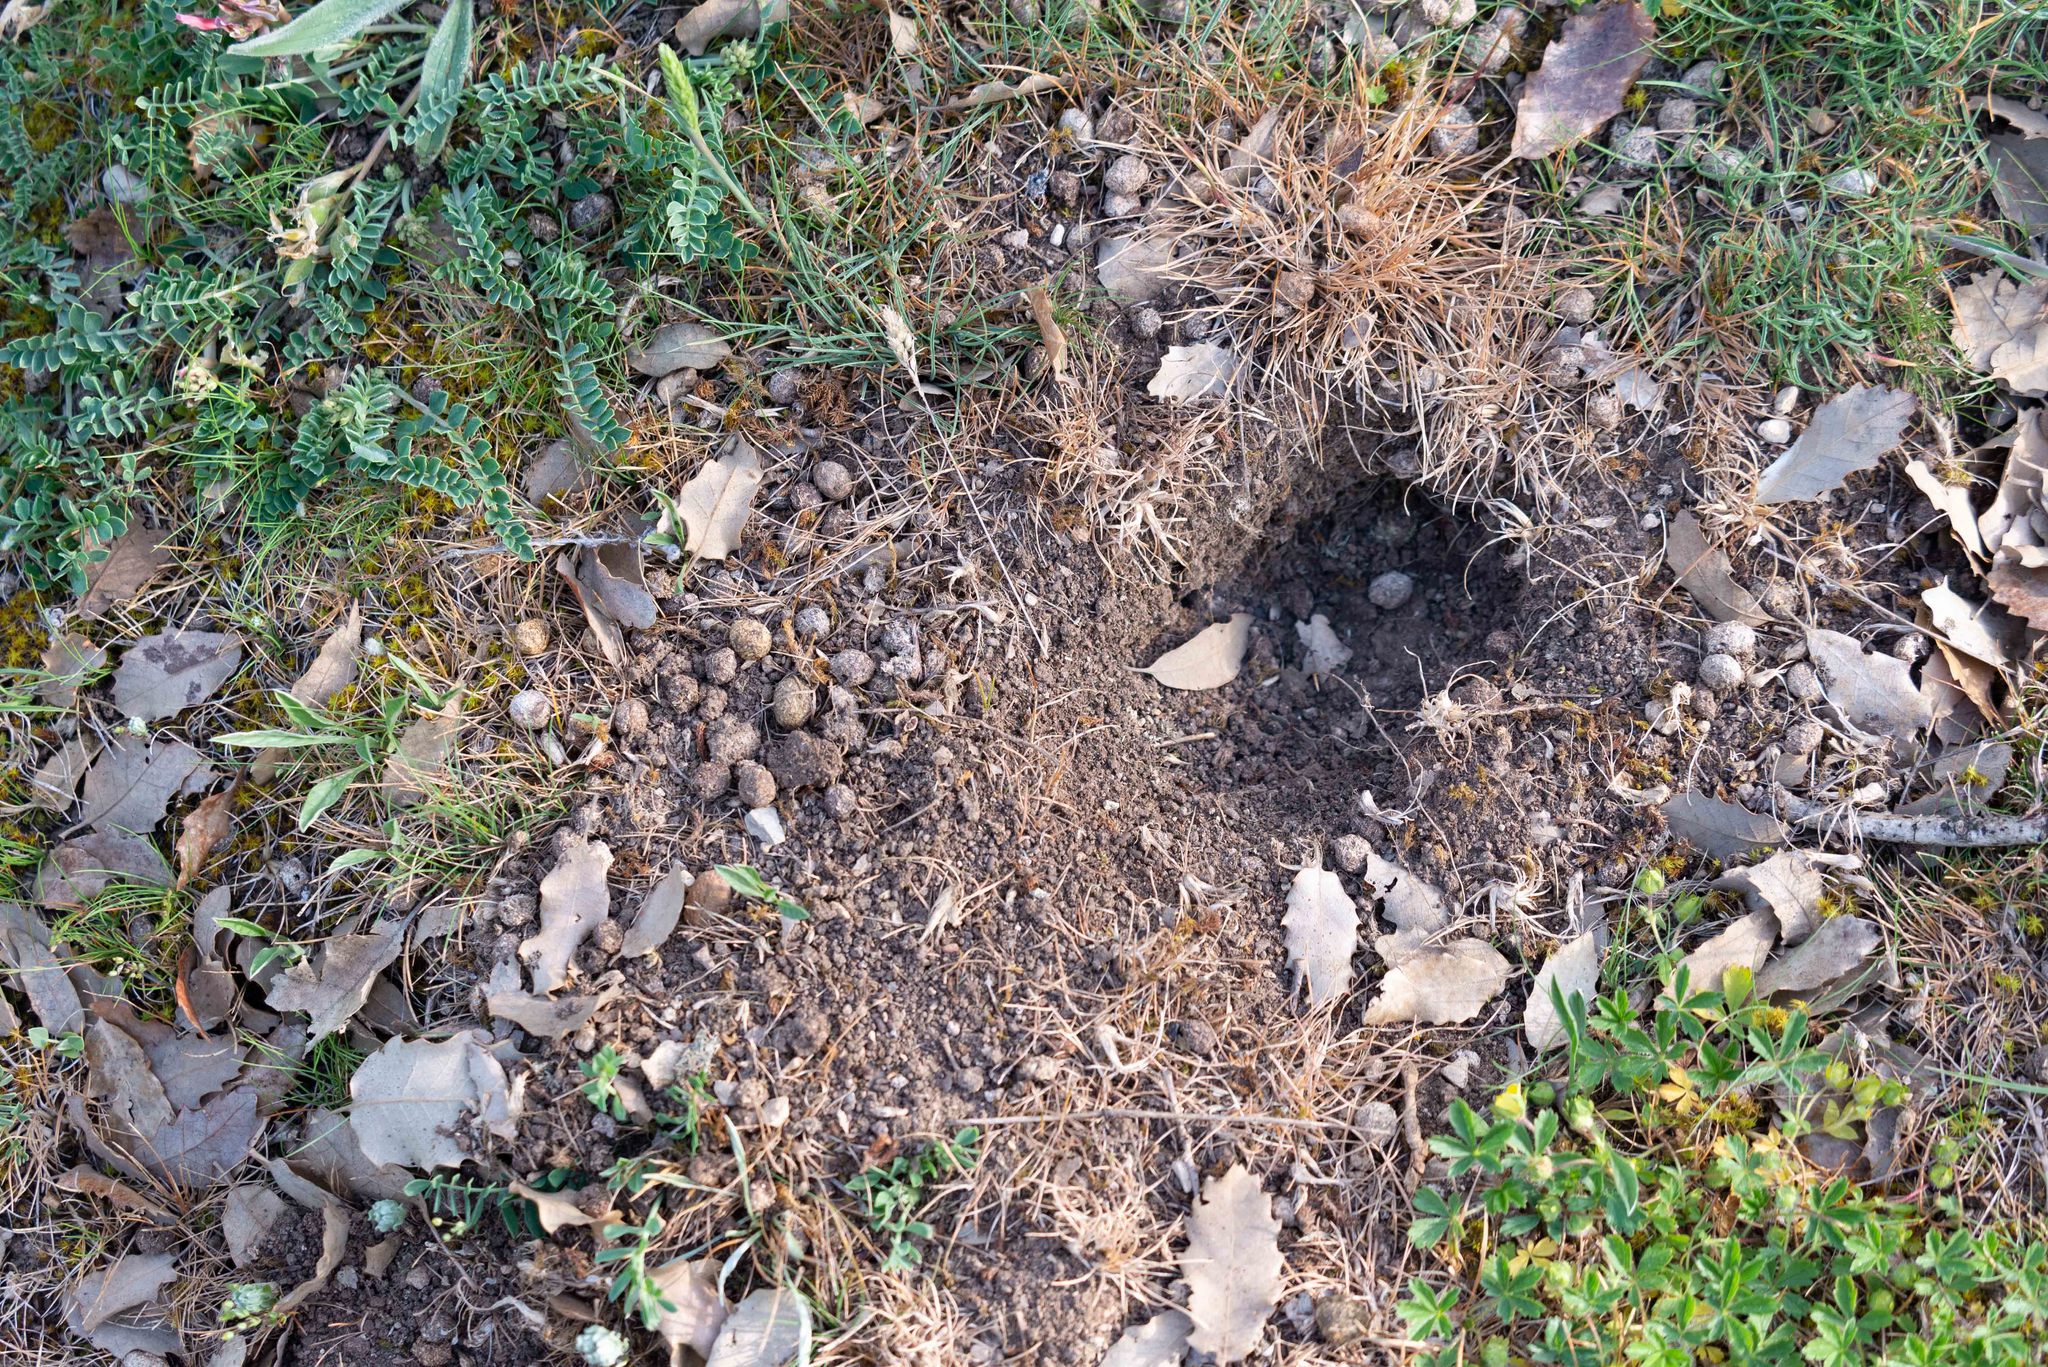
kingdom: Animalia
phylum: Chordata
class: Mammalia
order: Lagomorpha
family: Leporidae
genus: Oryctolagus
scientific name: Oryctolagus cuniculus
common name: European rabbit
